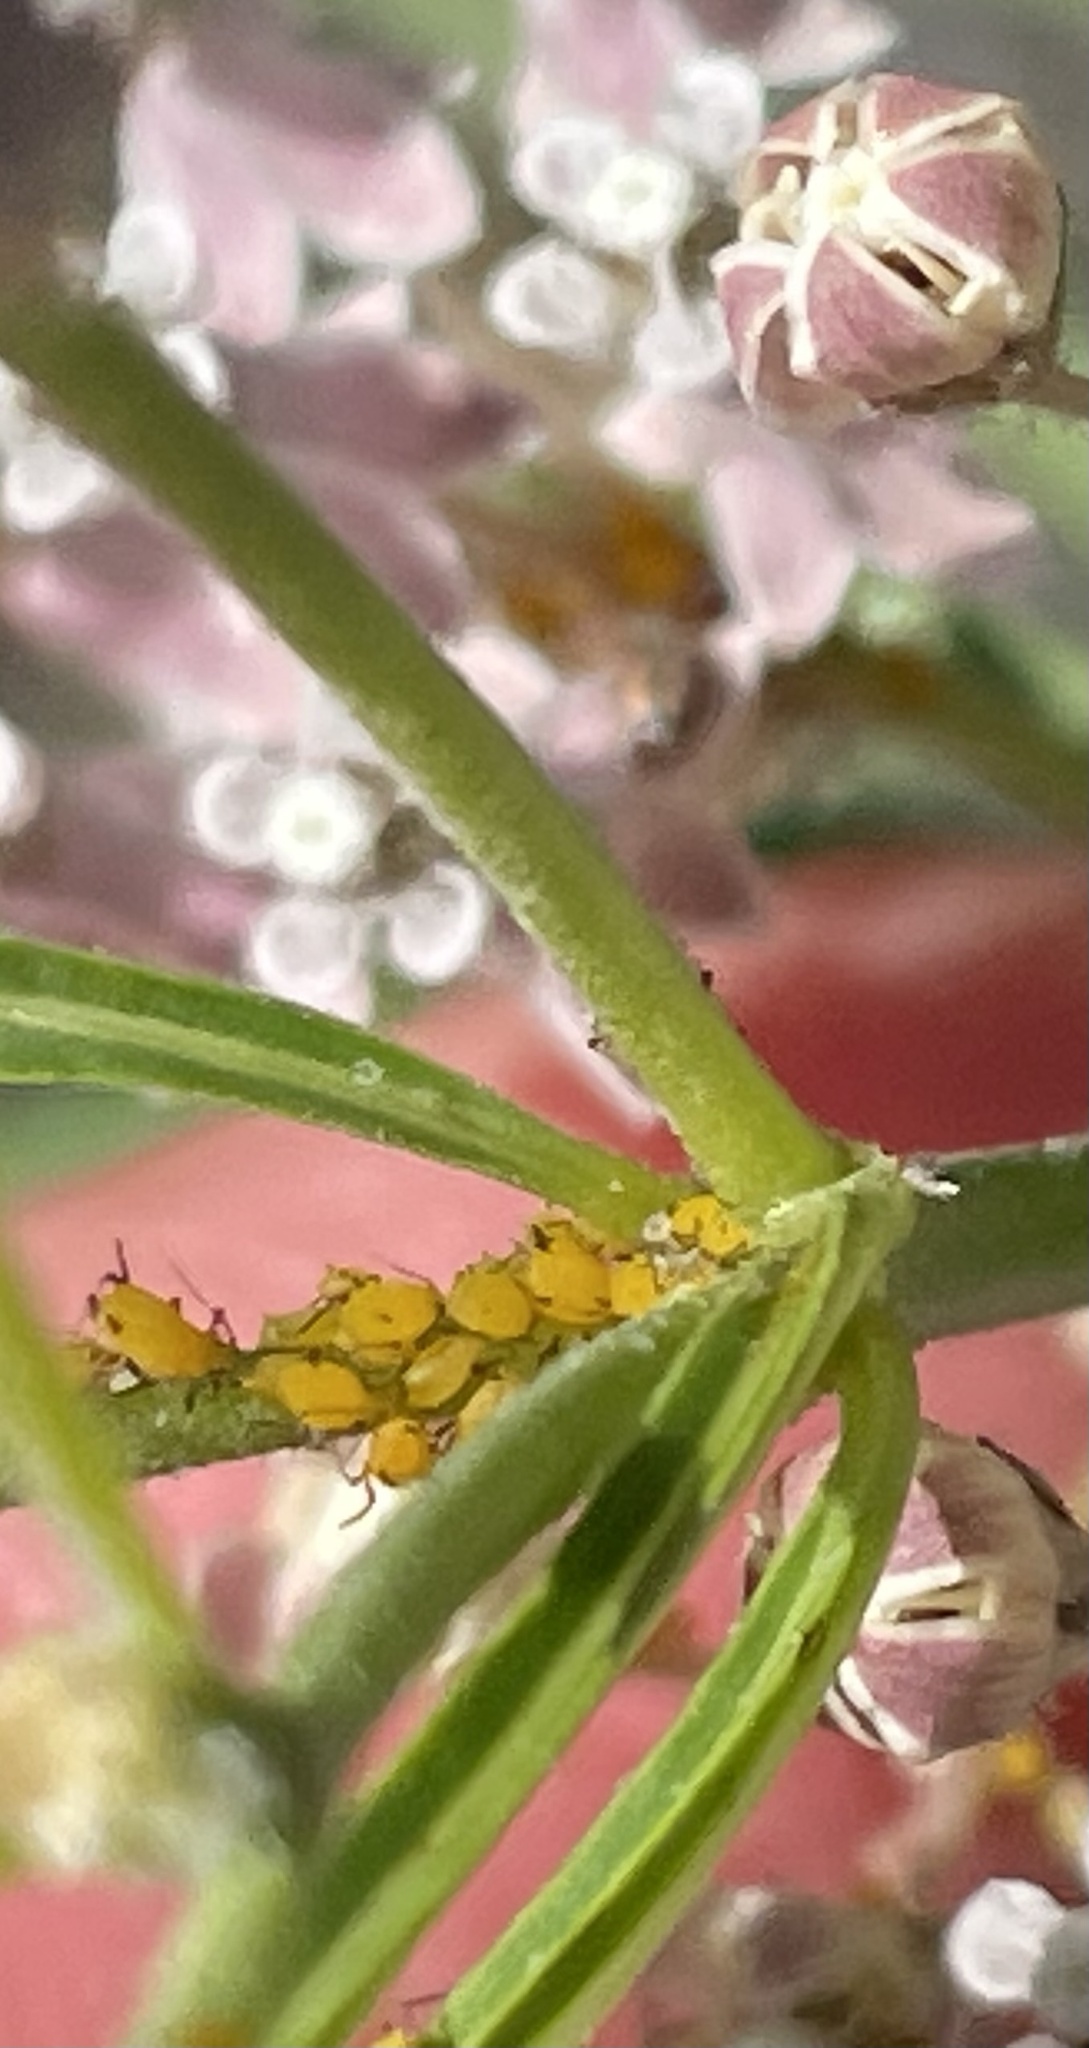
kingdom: Animalia
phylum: Arthropoda
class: Insecta
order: Hemiptera
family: Aphididae
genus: Aphis
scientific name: Aphis nerii
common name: Oleander aphid
